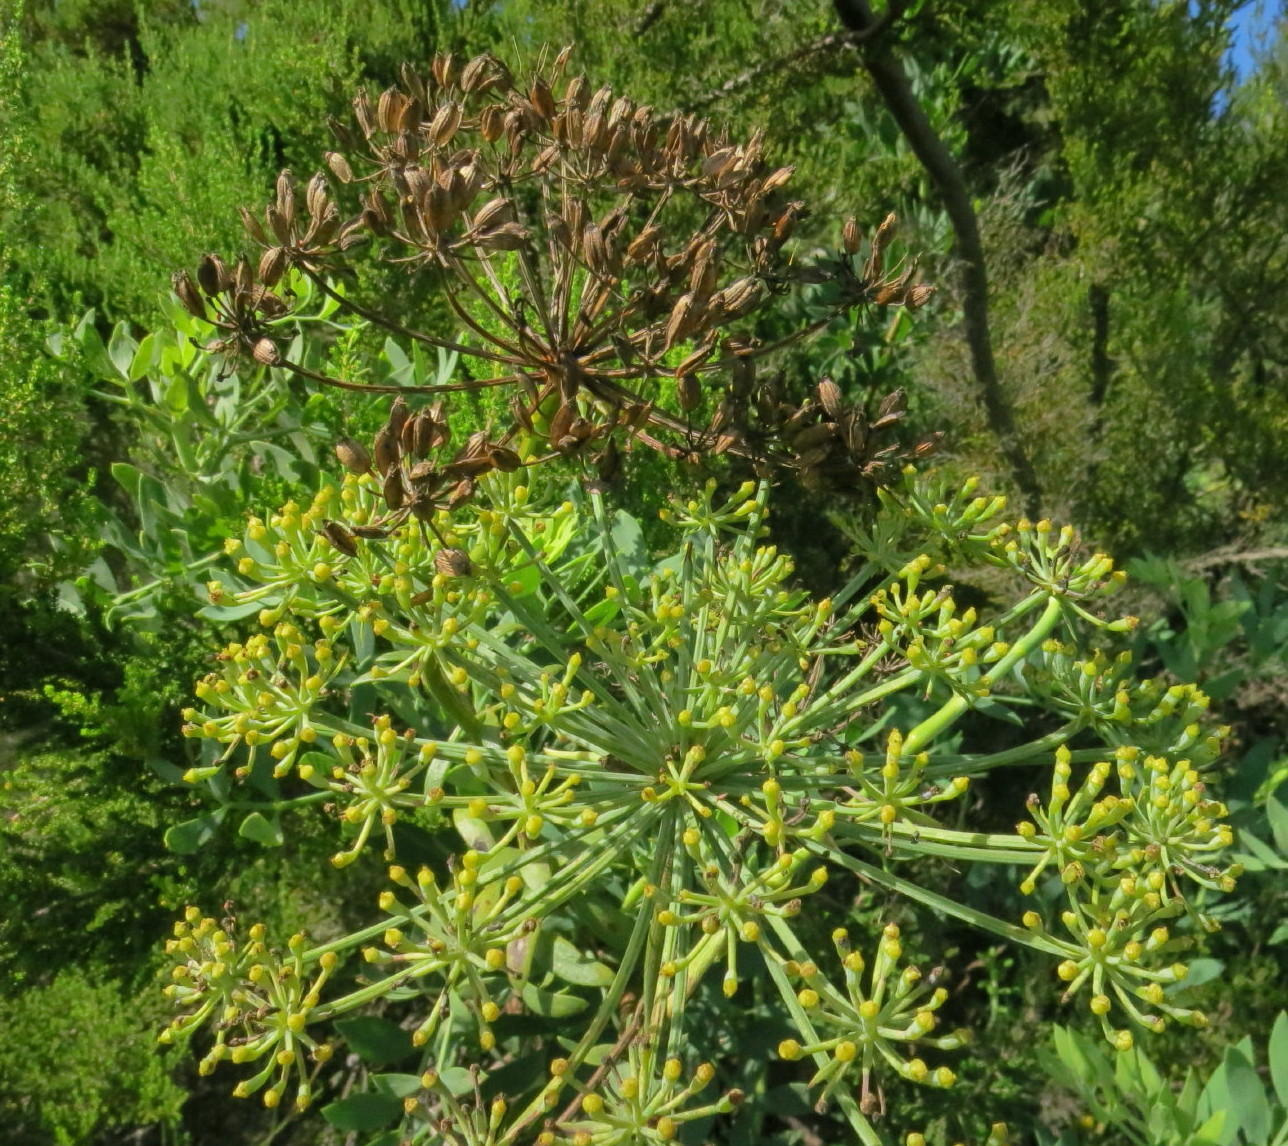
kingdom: Plantae
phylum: Tracheophyta
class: Magnoliopsida
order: Apiales
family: Apiaceae
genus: Notobubon
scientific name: Notobubon laevigatum
